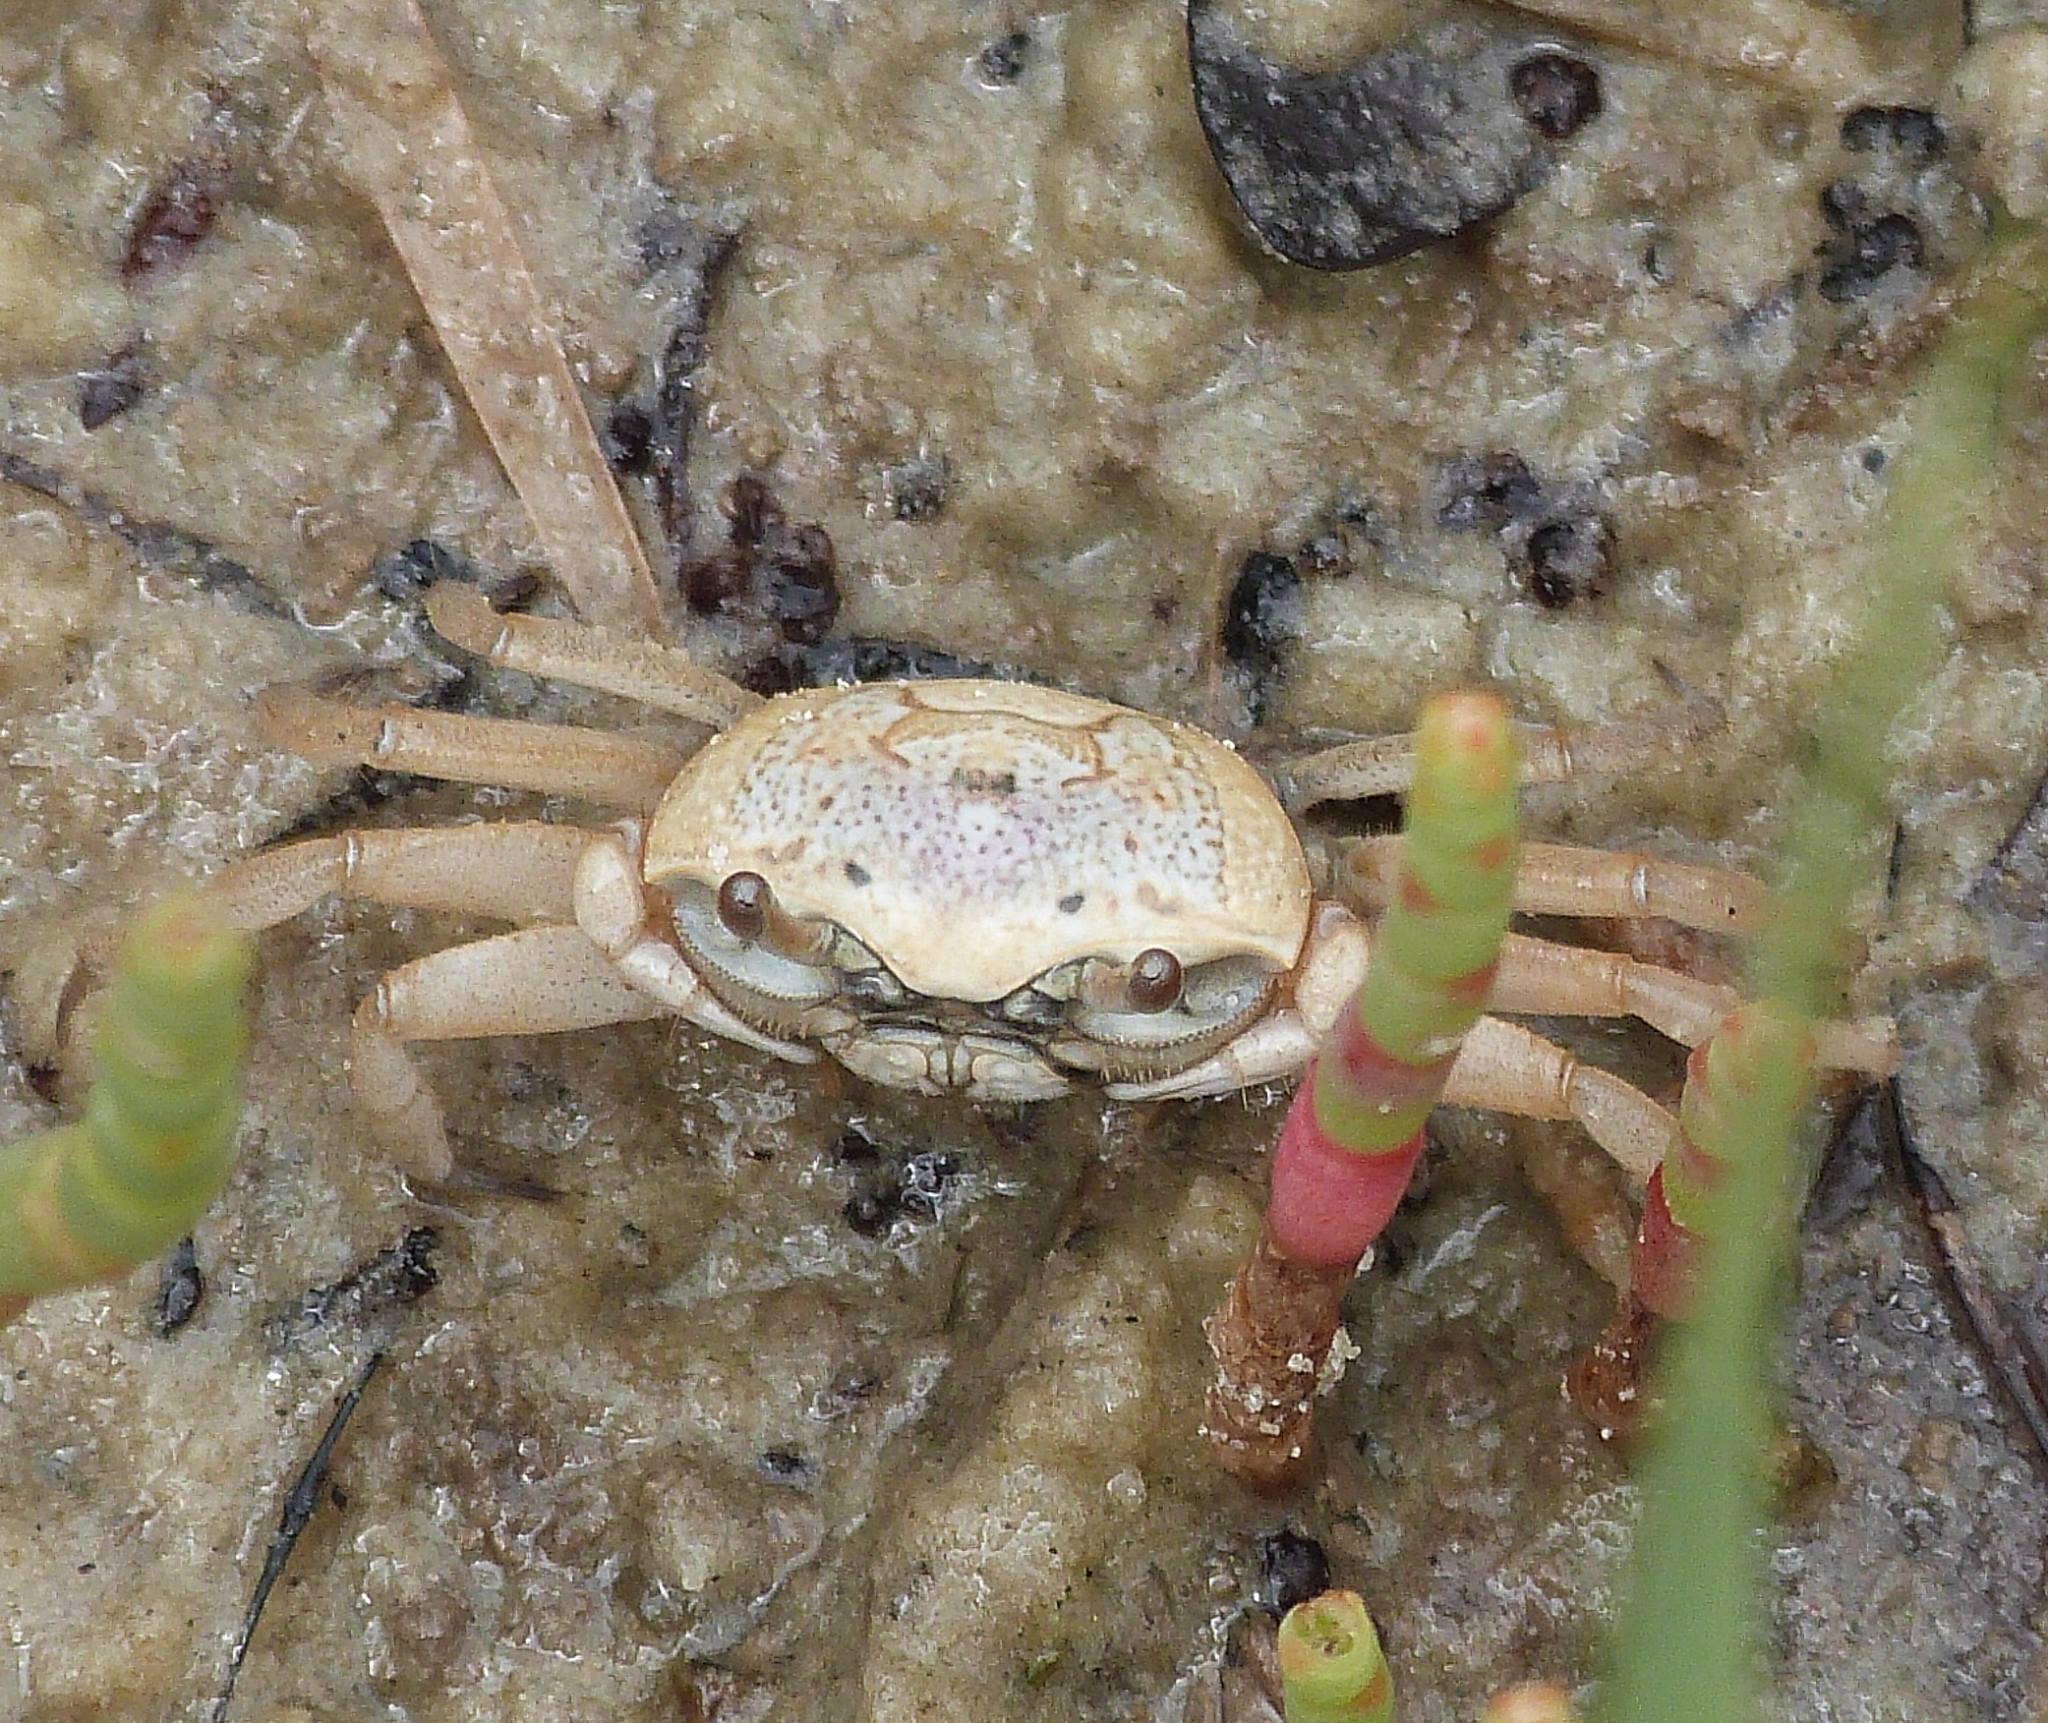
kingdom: Animalia
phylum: Arthropoda
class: Malacostraca
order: Decapoda
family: Ocypodidae
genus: Leptuca
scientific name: Leptuca pugilator
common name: Atlantic sand fiddler crab
